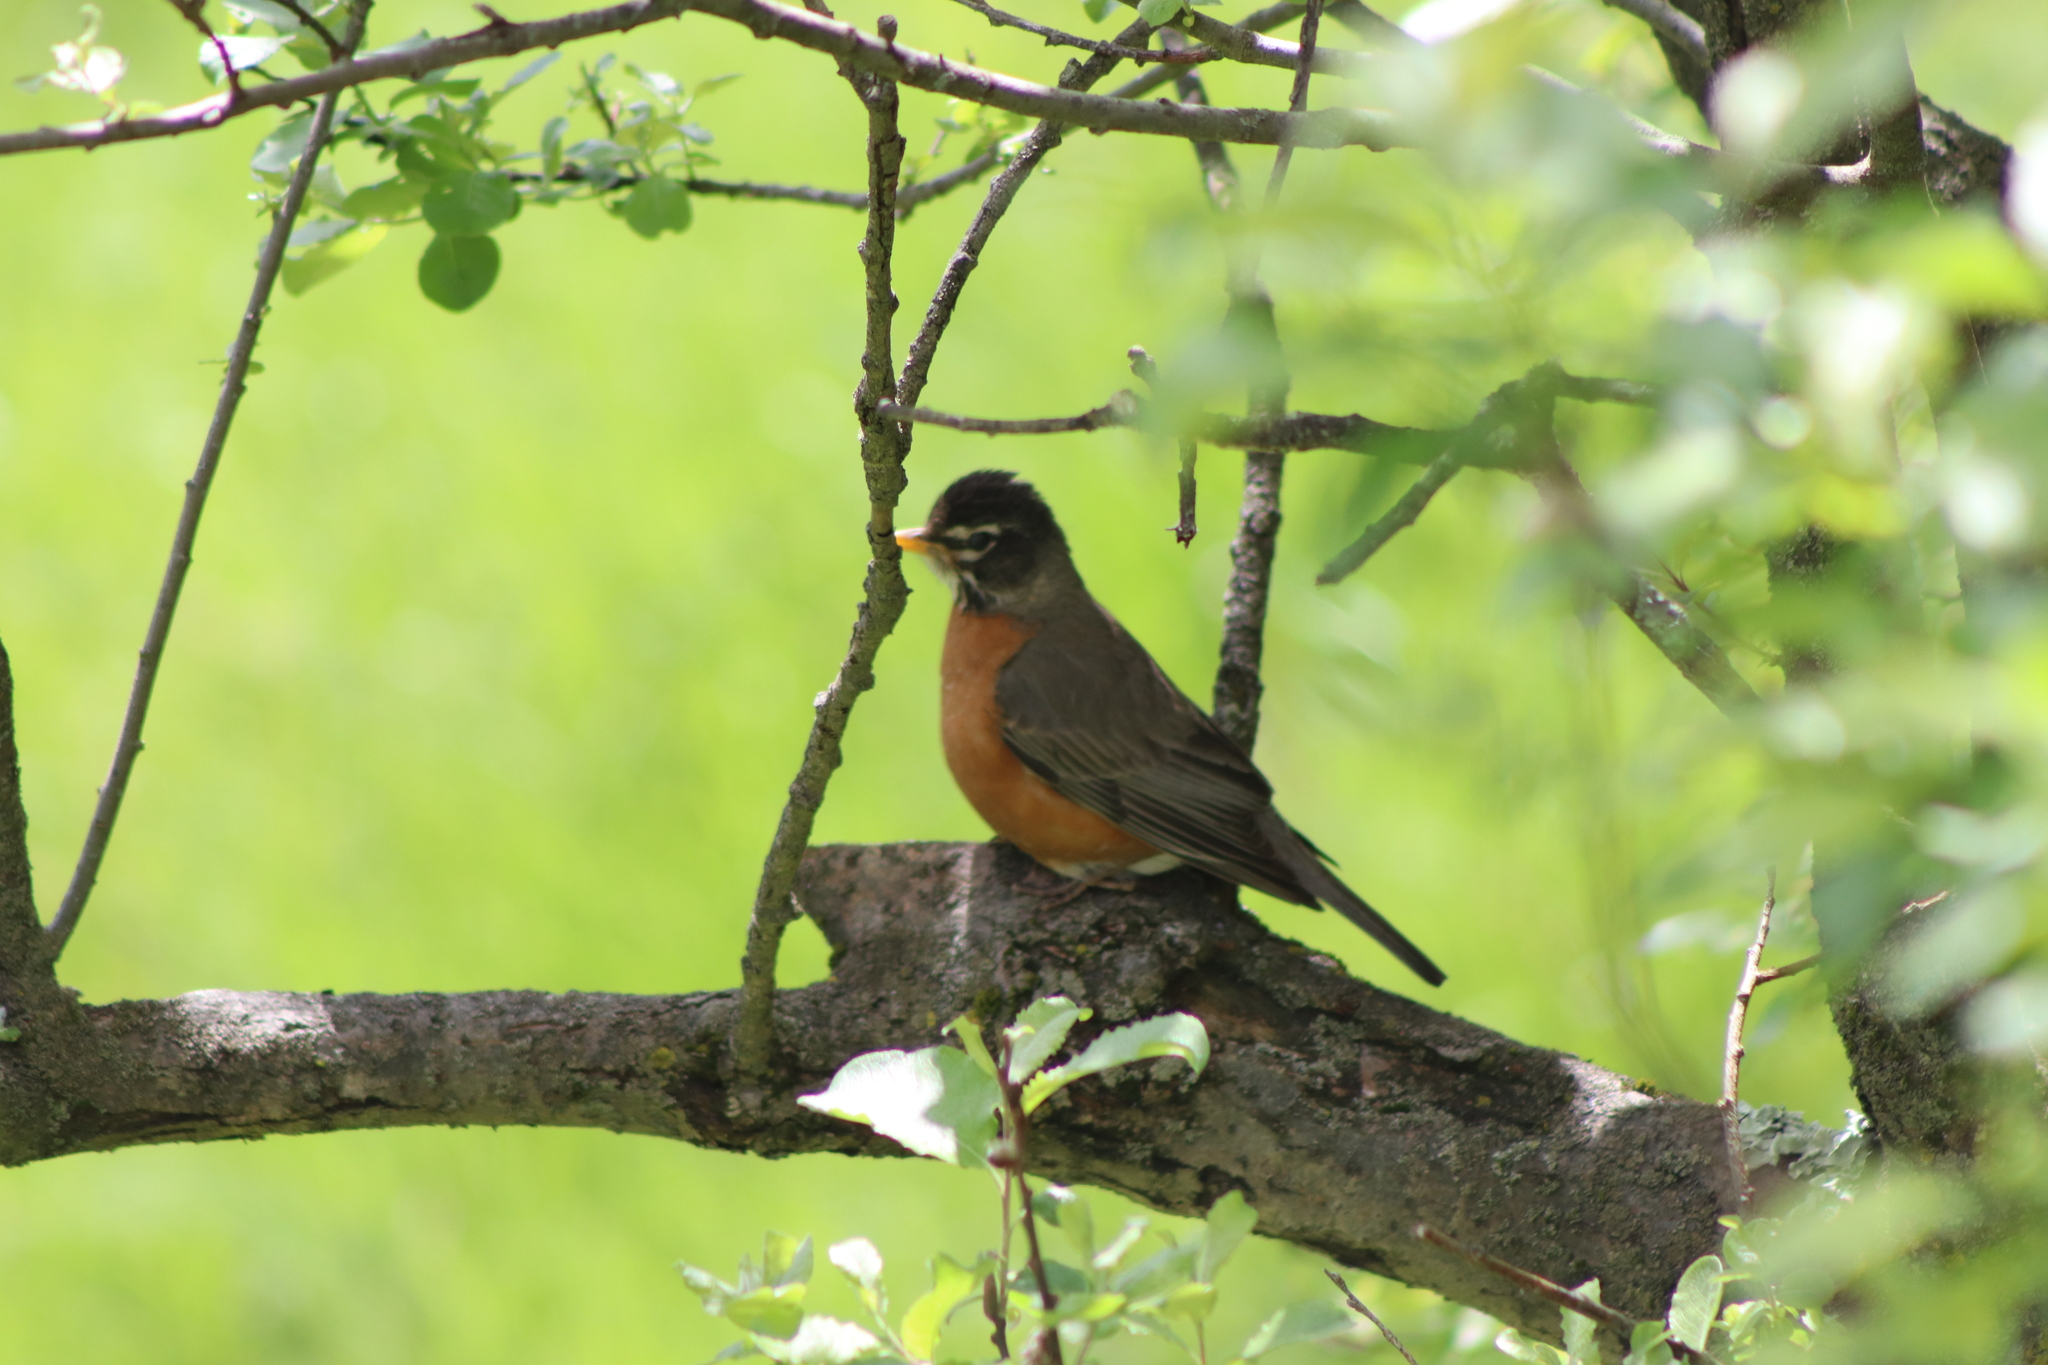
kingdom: Animalia
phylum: Chordata
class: Aves
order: Passeriformes
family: Turdidae
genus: Turdus
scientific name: Turdus migratorius
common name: American robin
